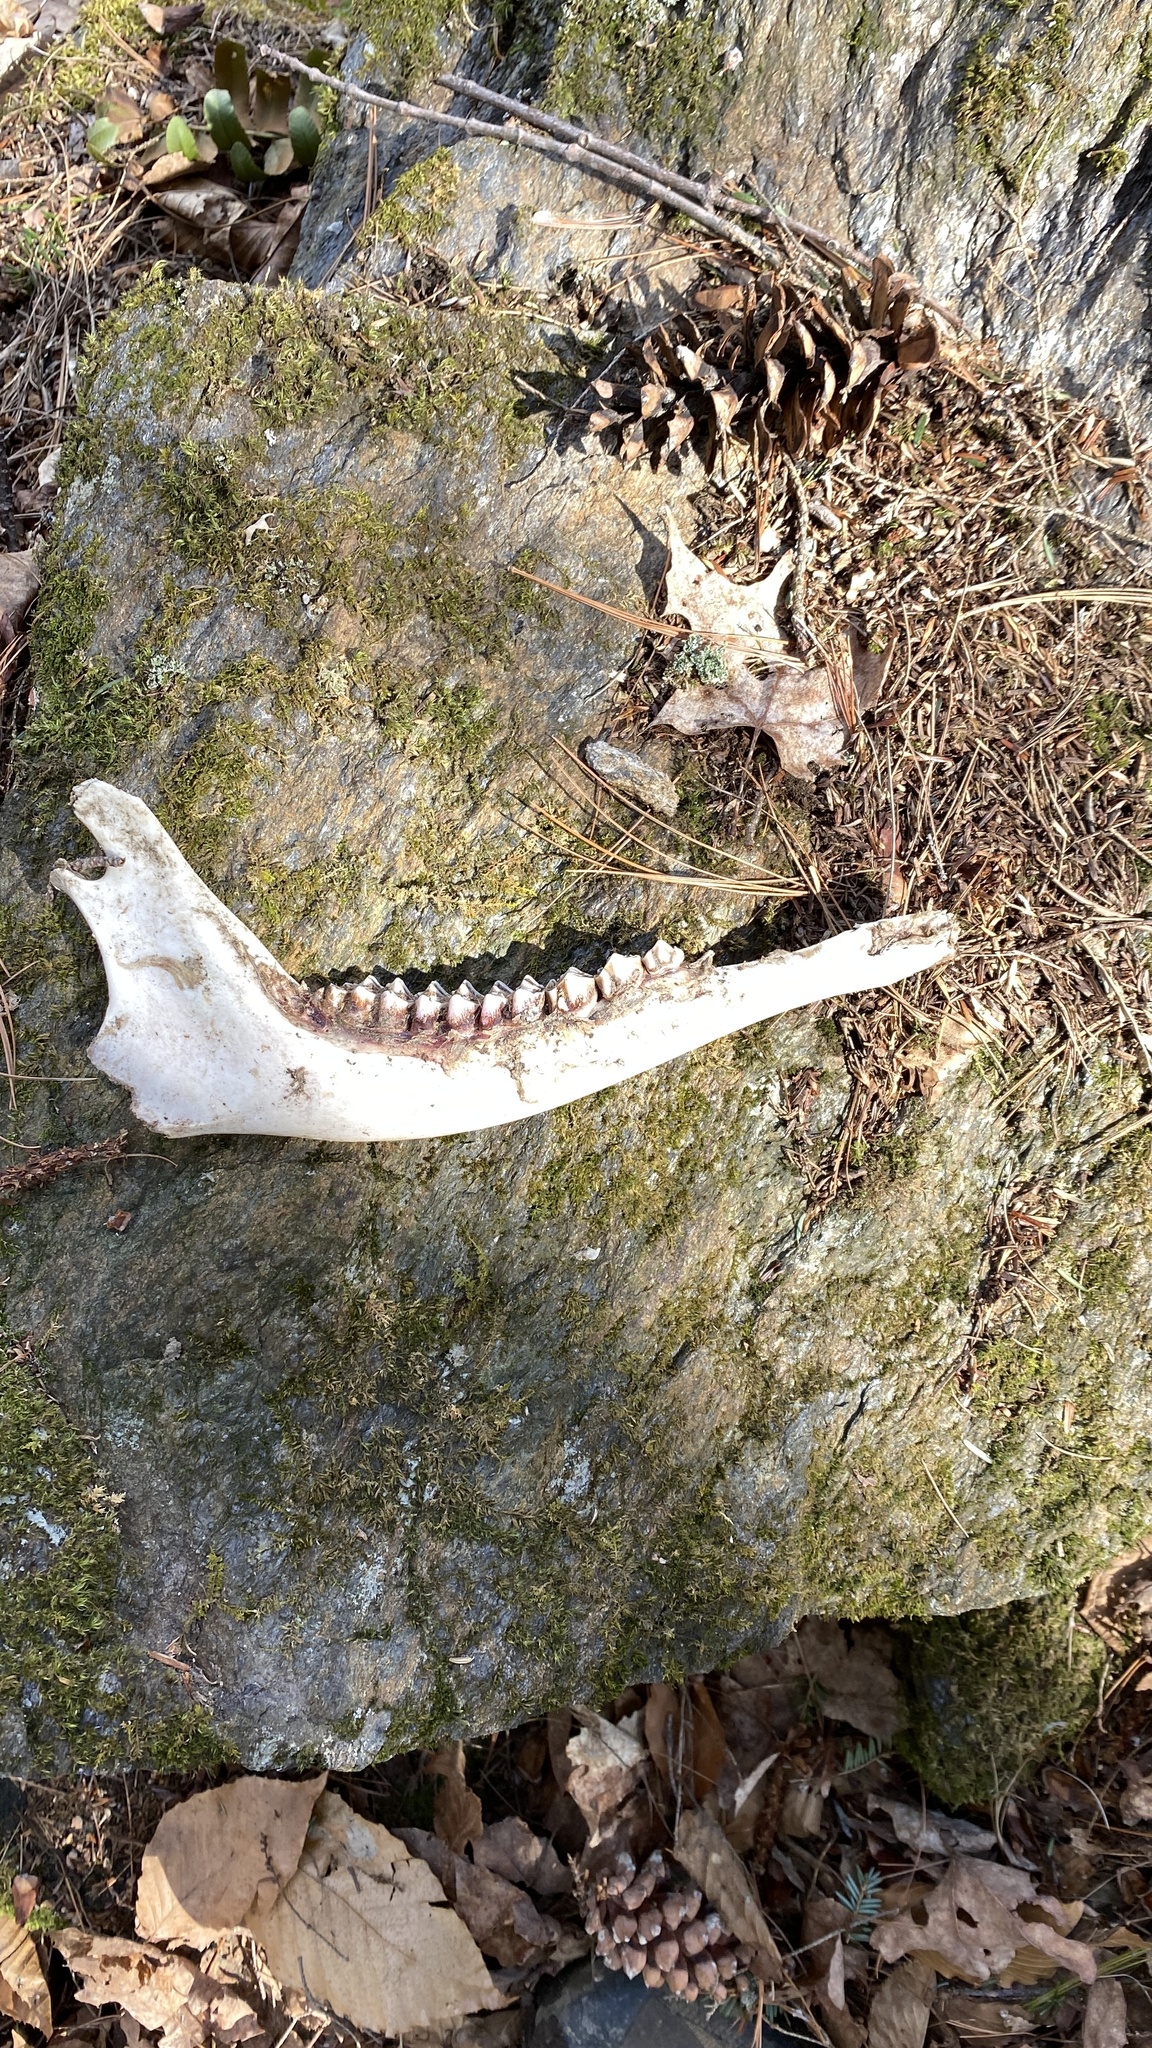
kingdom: Animalia
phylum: Chordata
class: Mammalia
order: Artiodactyla
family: Cervidae
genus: Odocoileus
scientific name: Odocoileus virginianus
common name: White-tailed deer
